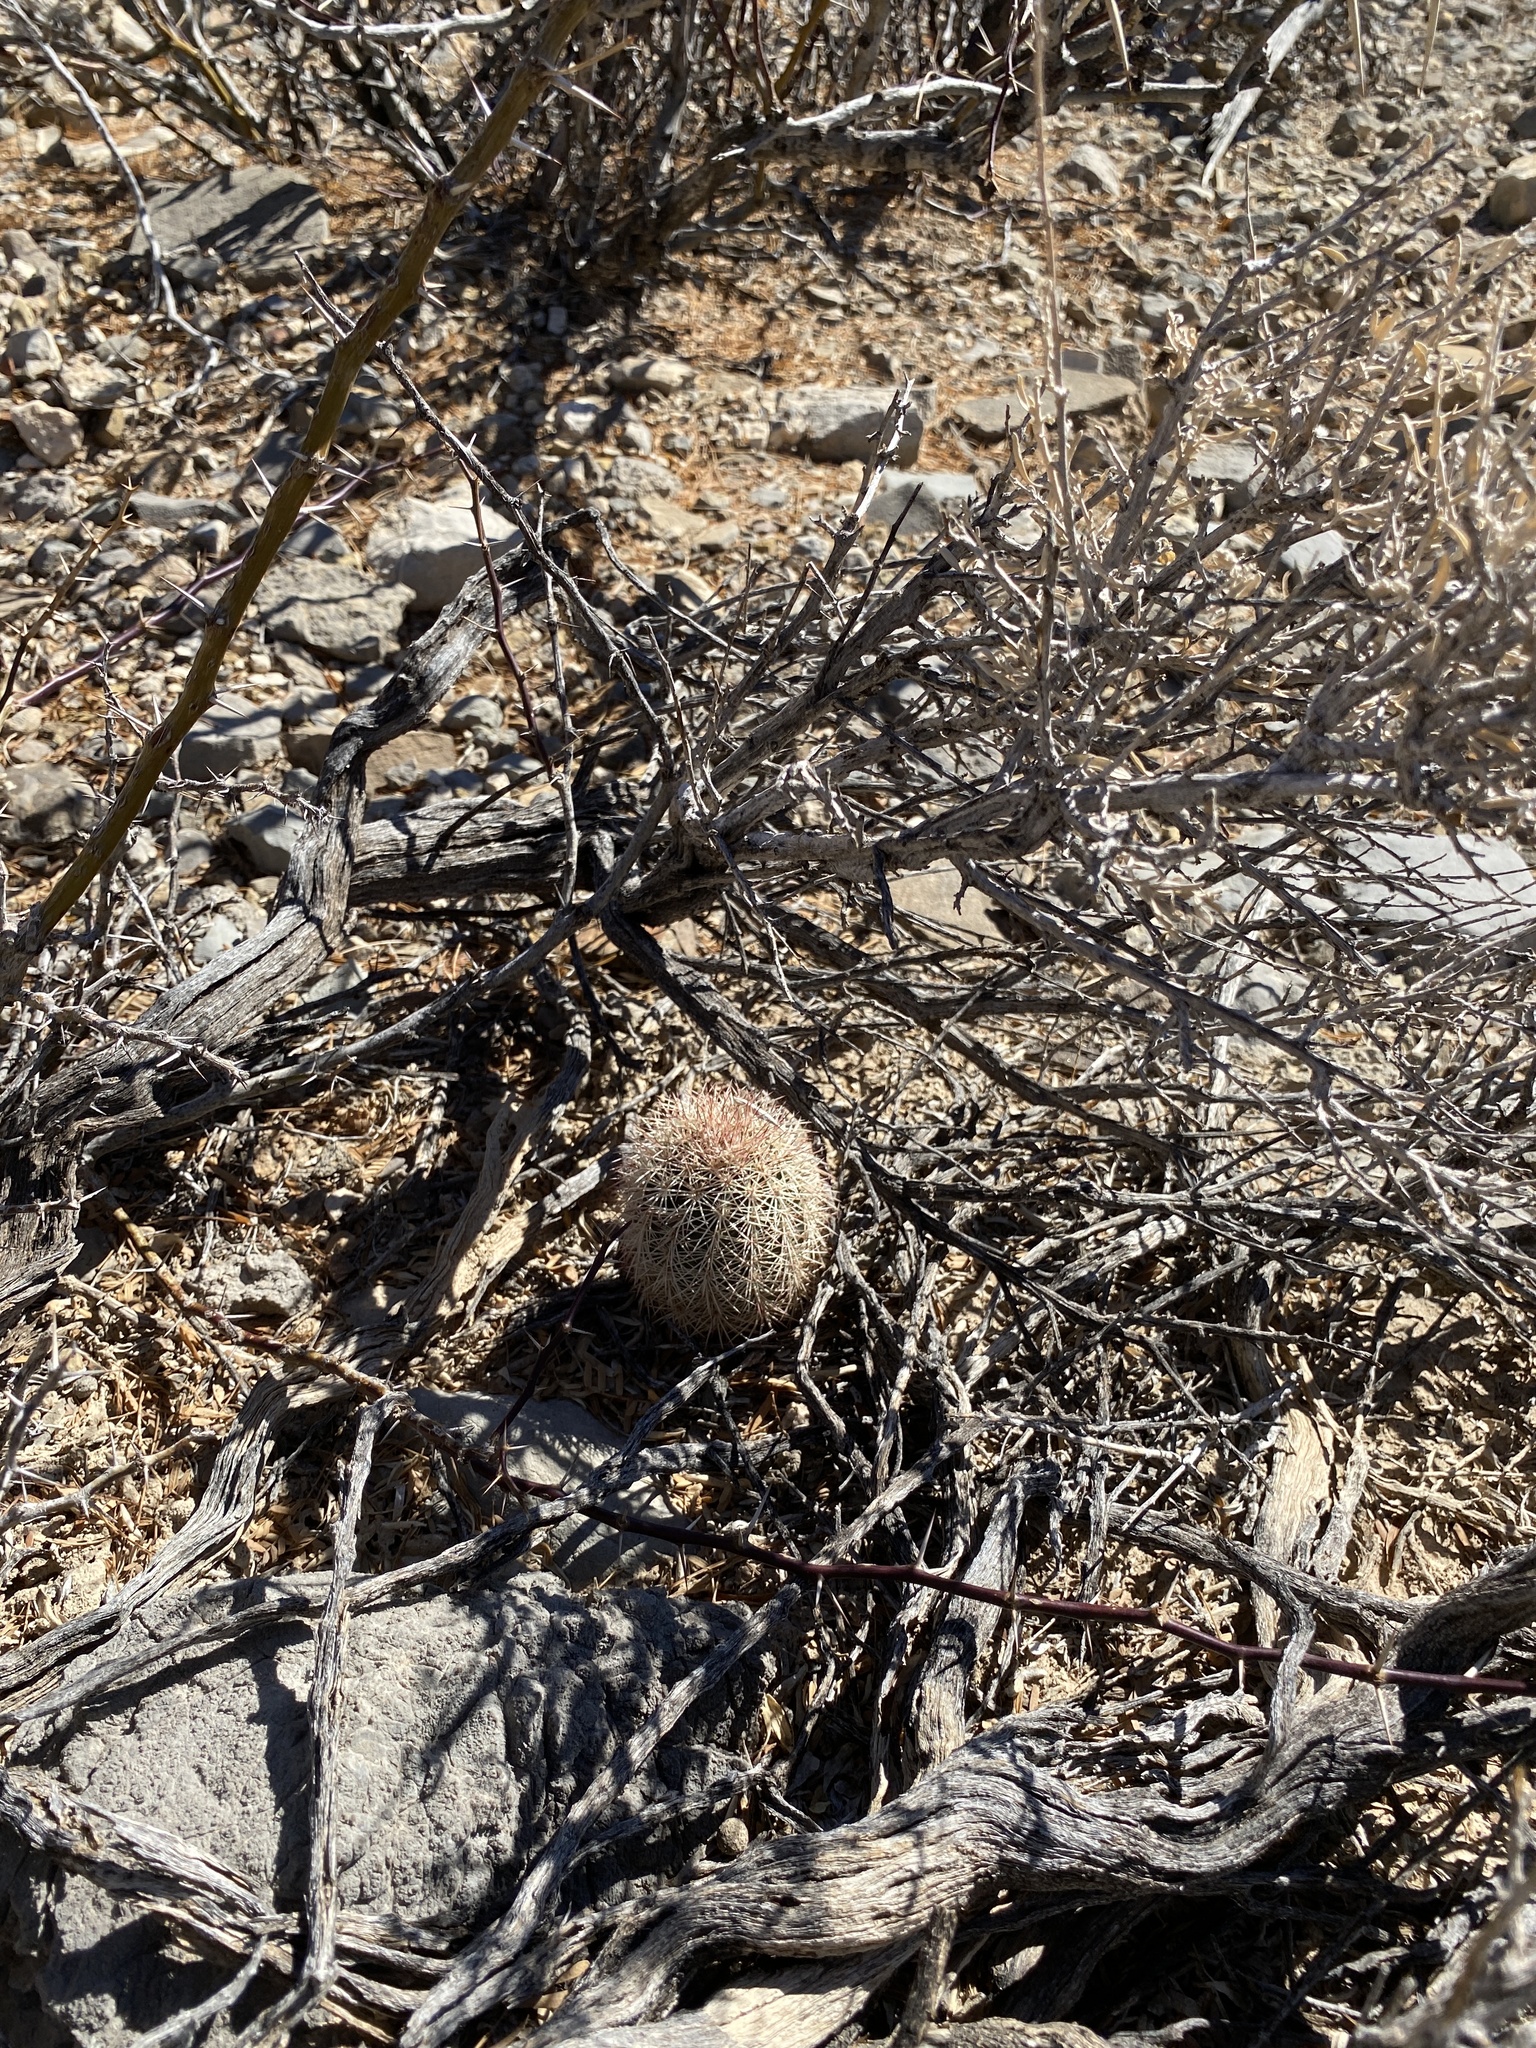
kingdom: Plantae
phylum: Tracheophyta
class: Magnoliopsida
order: Caryophyllales
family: Cactaceae
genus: Echinocereus
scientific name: Echinocereus dasyacanthus
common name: Spiny hedgehog cactus
